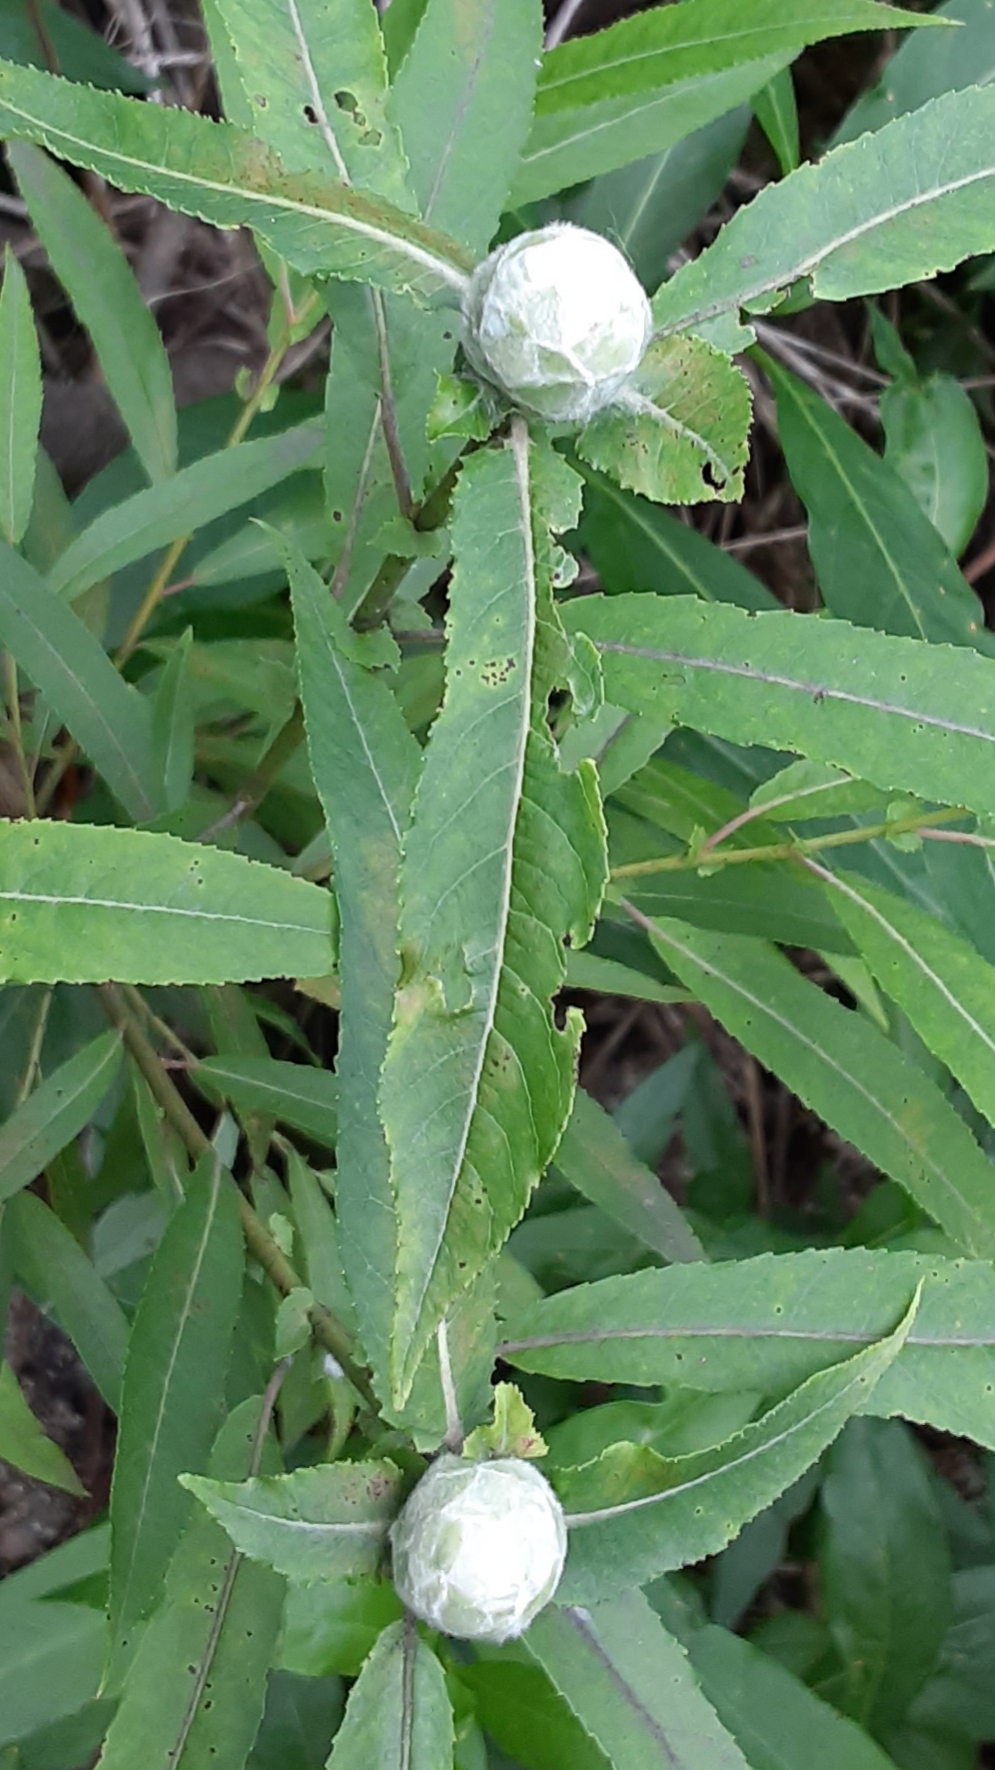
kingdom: Animalia
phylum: Arthropoda
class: Insecta
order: Diptera
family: Cecidomyiidae
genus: Rabdophaga
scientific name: Rabdophaga strobiloides
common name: Willow pinecone gall midge
